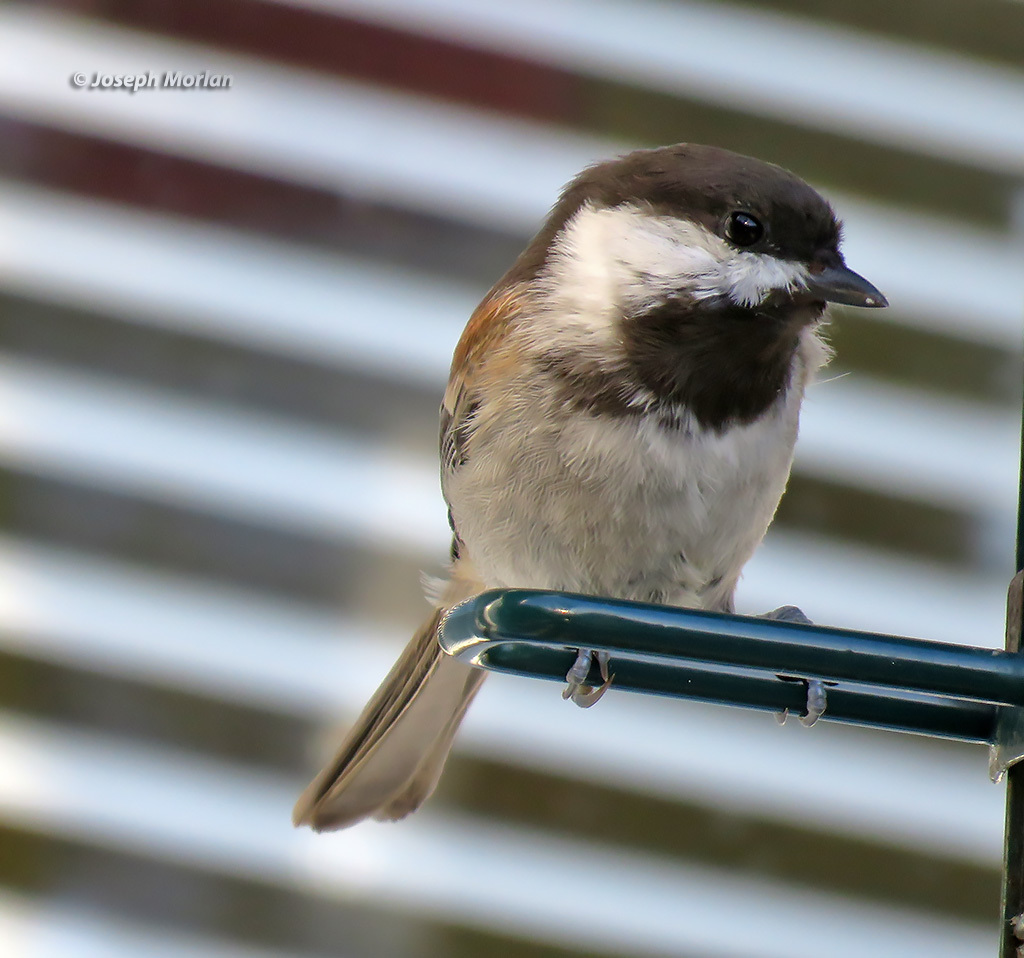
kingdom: Animalia
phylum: Chordata
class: Aves
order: Passeriformes
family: Paridae
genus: Poecile
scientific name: Poecile rufescens
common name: Chestnut-backed chickadee
